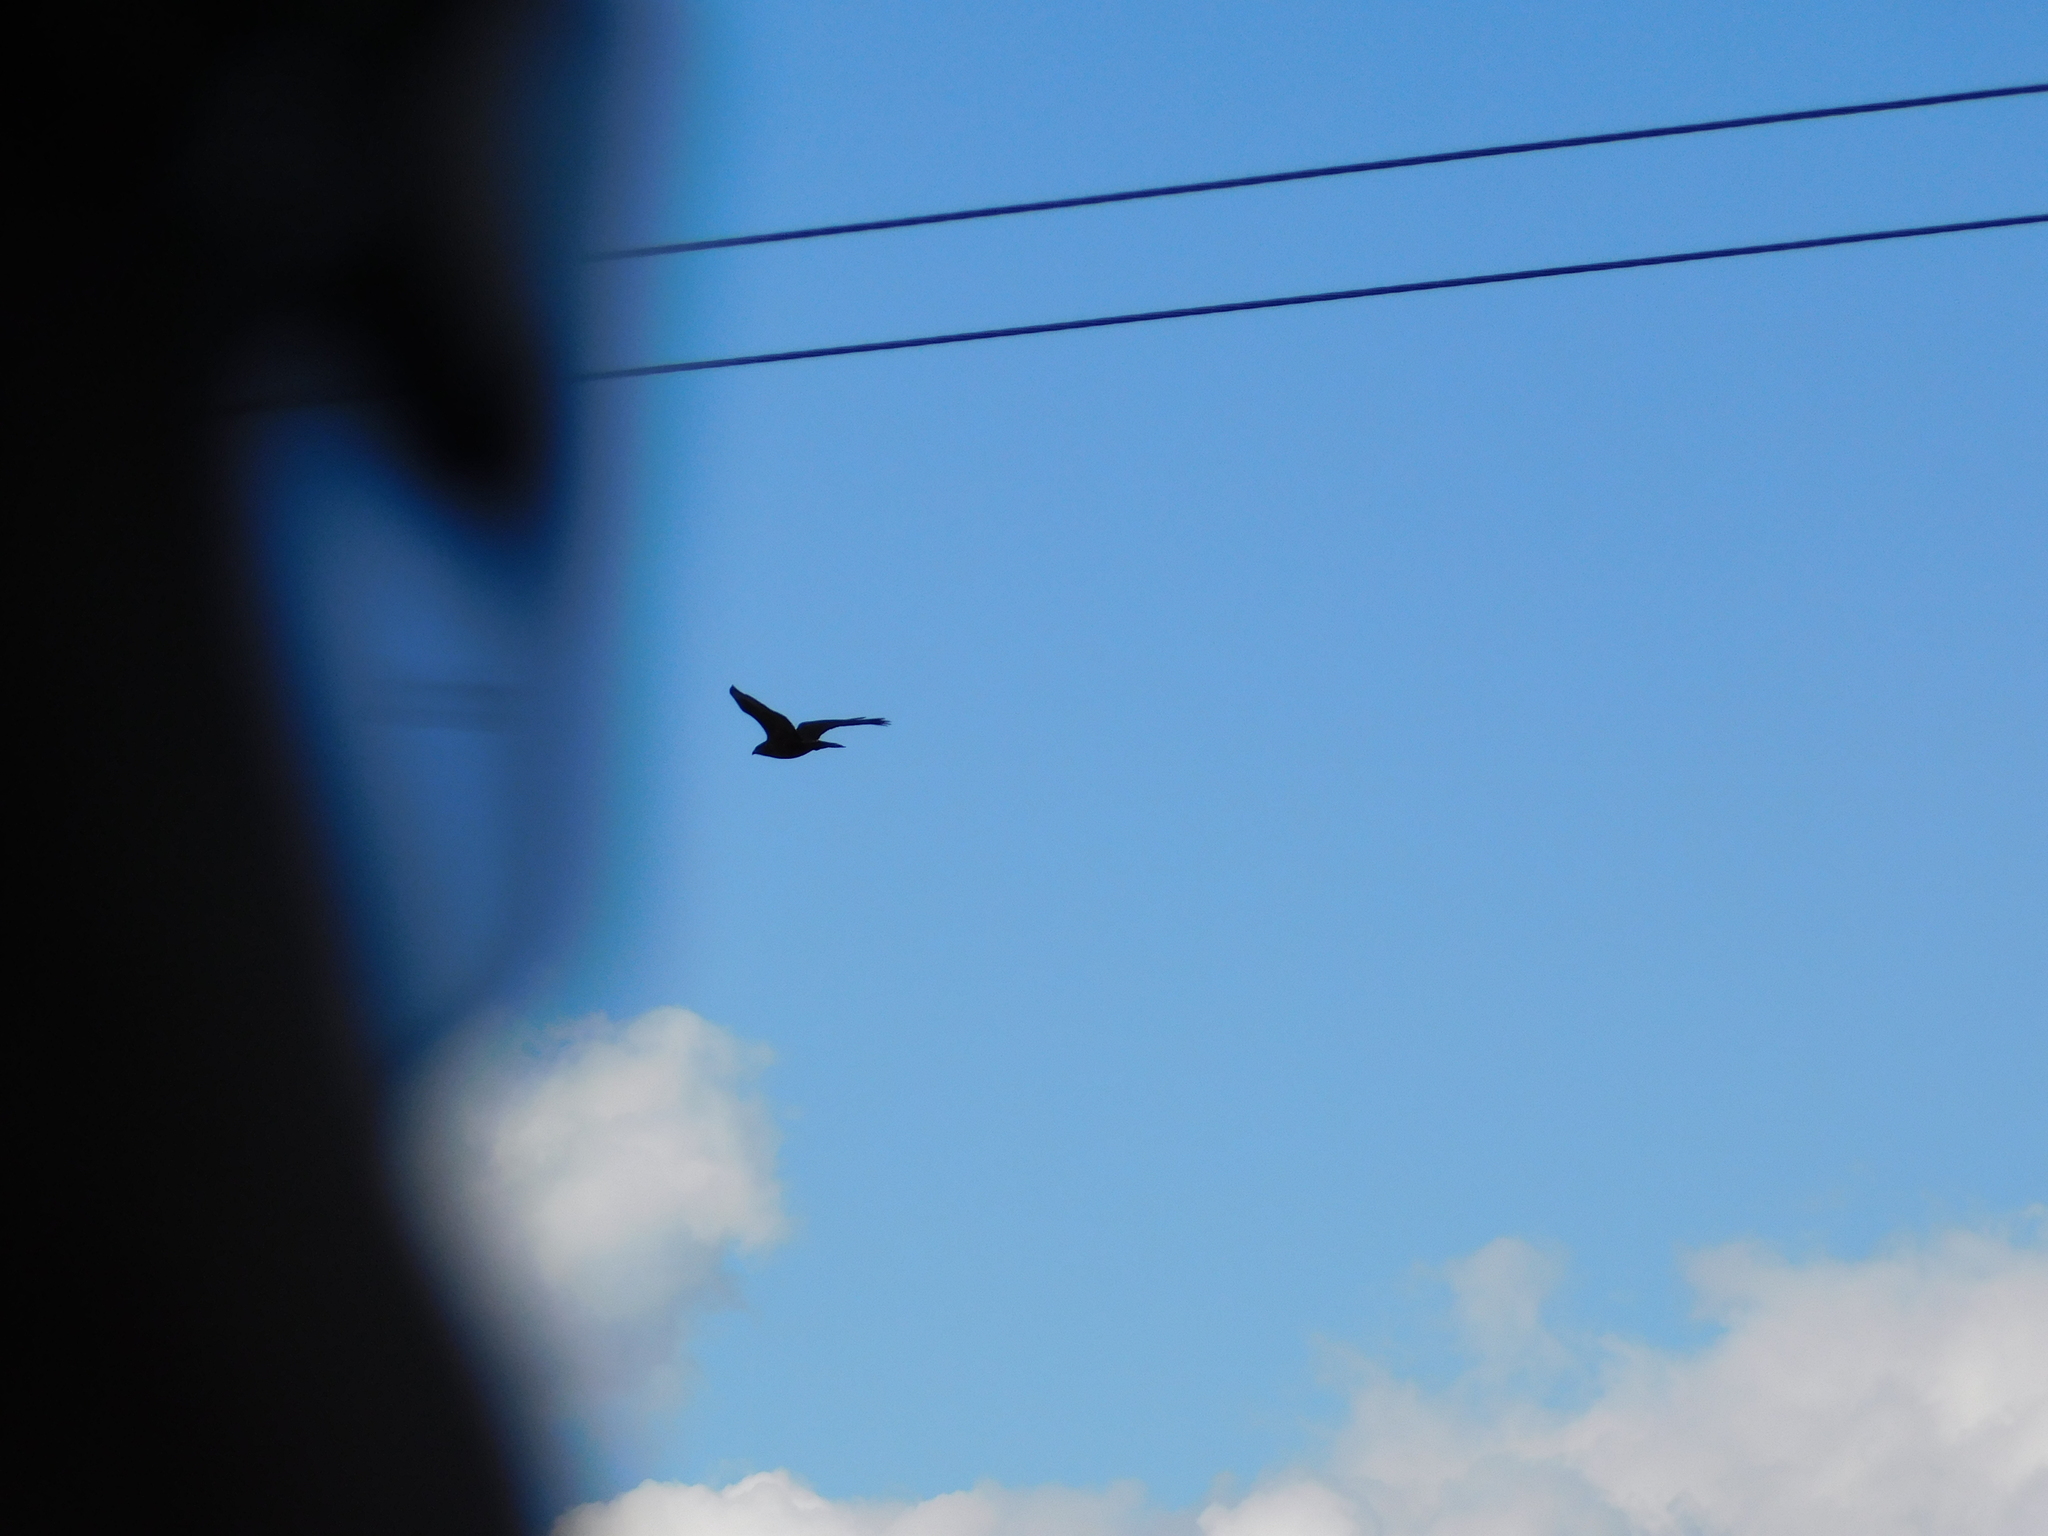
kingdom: Animalia
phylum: Chordata
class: Aves
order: Accipitriformes
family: Accipitridae
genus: Buteo
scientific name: Buteo buteo
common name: Common buzzard
